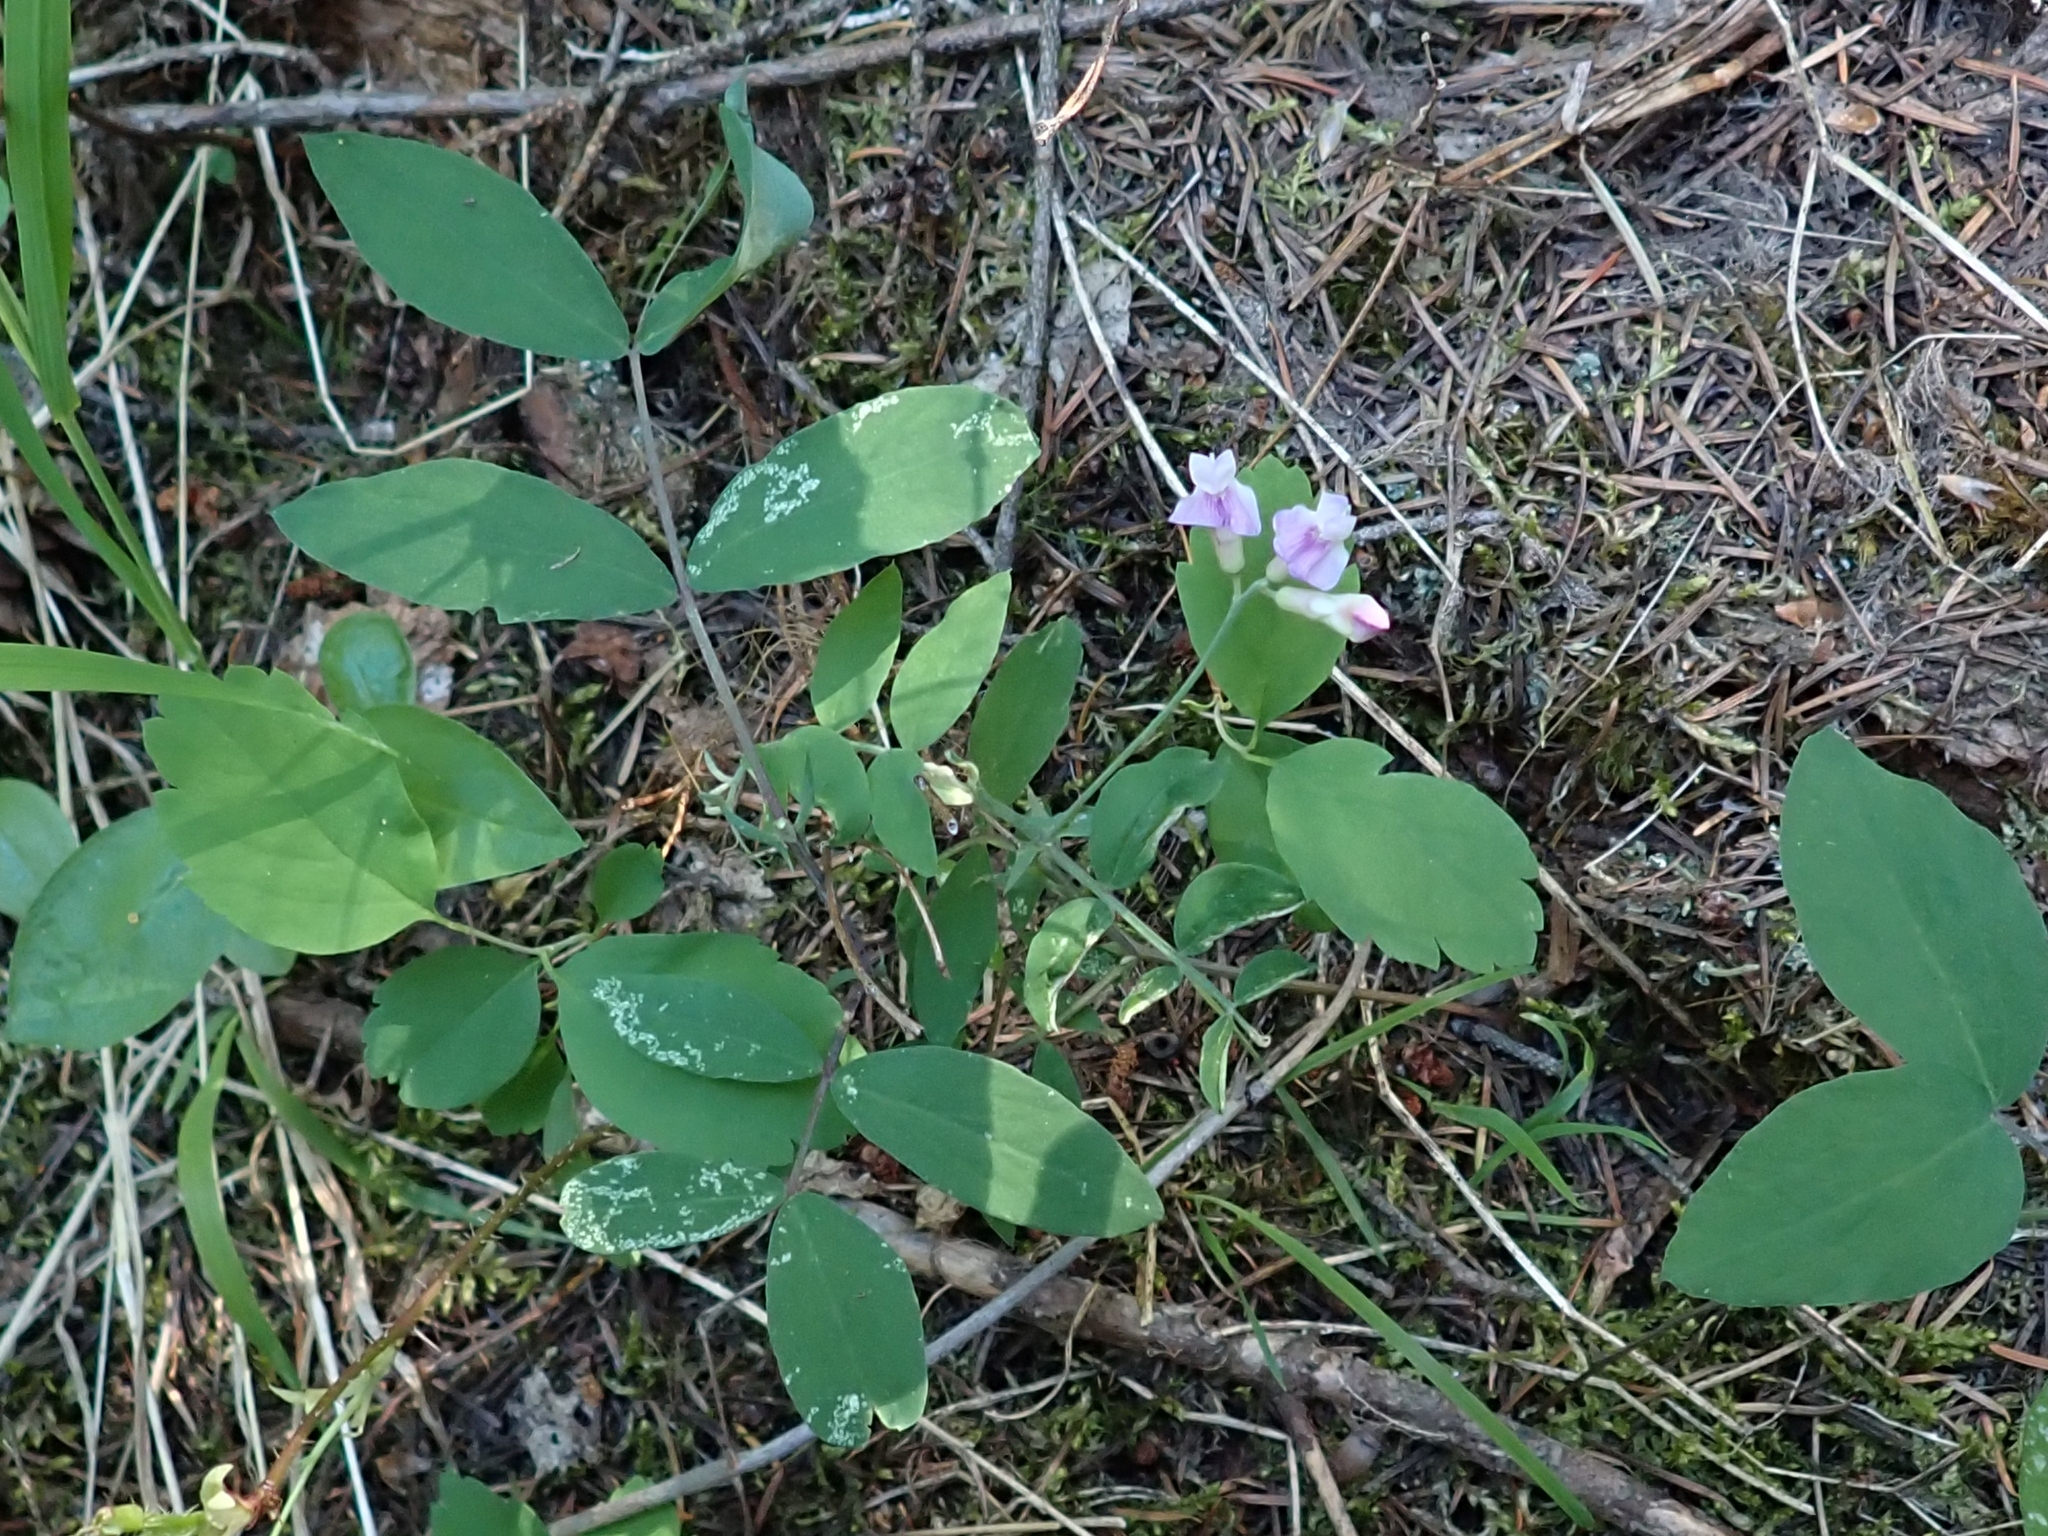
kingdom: Plantae
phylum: Tracheophyta
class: Magnoliopsida
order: Fabales
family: Fabaceae
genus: Lathyrus
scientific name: Lathyrus nevadensis
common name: Sierra nevada peavine
